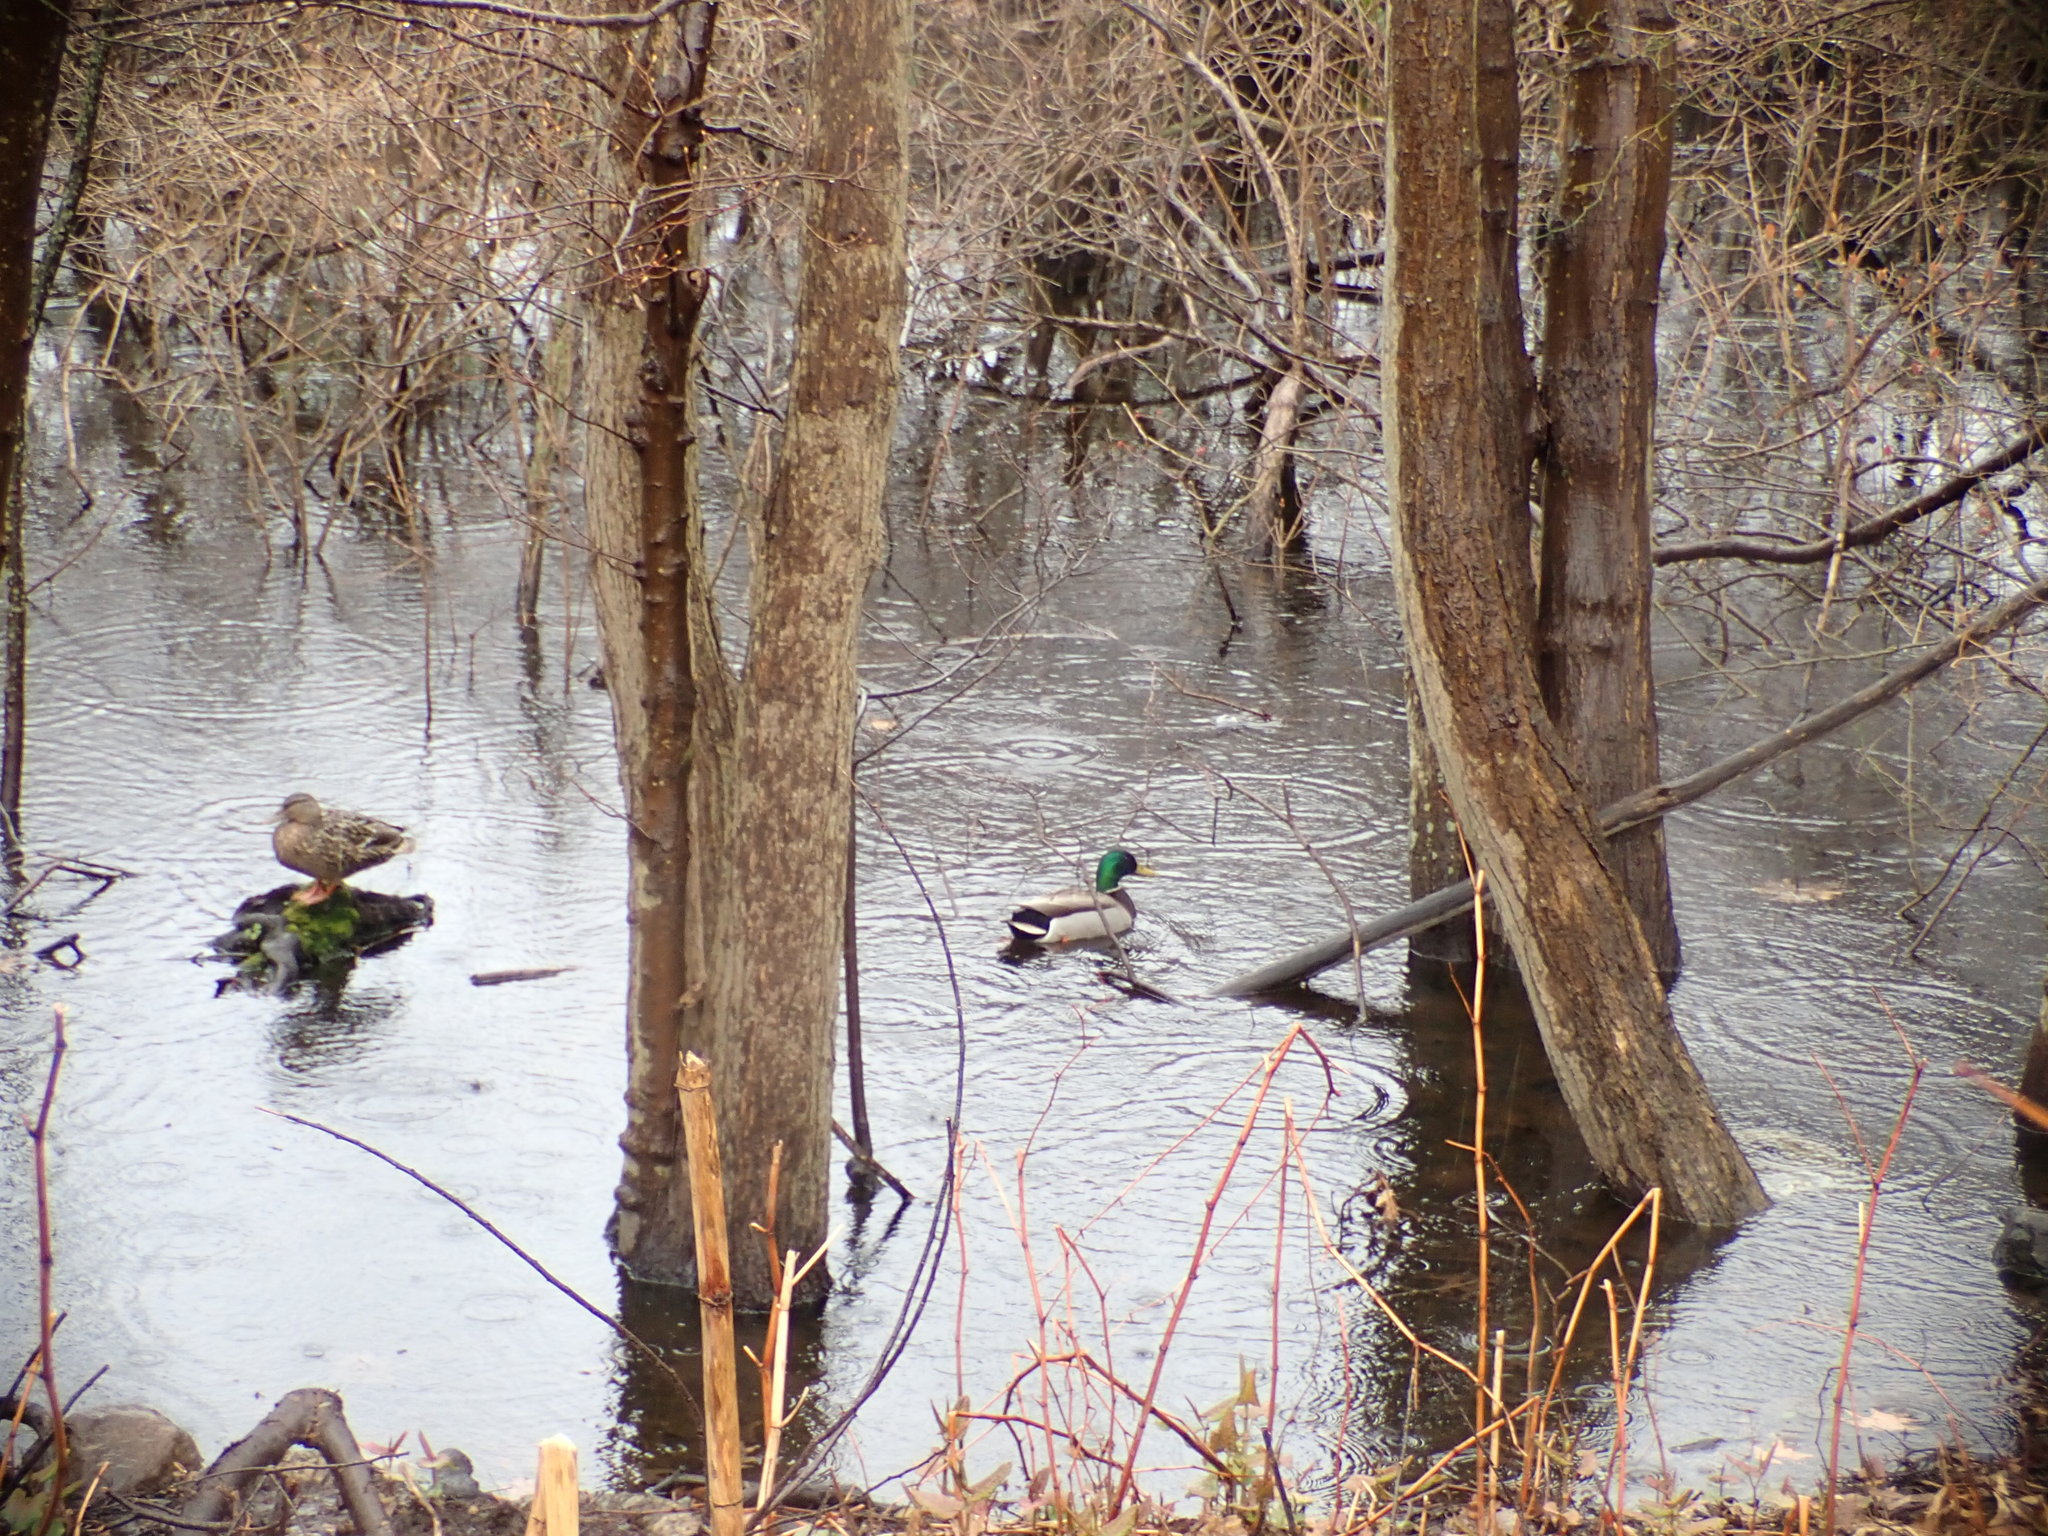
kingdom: Animalia
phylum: Chordata
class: Aves
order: Anseriformes
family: Anatidae
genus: Anas
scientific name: Anas platyrhynchos
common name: Mallard
